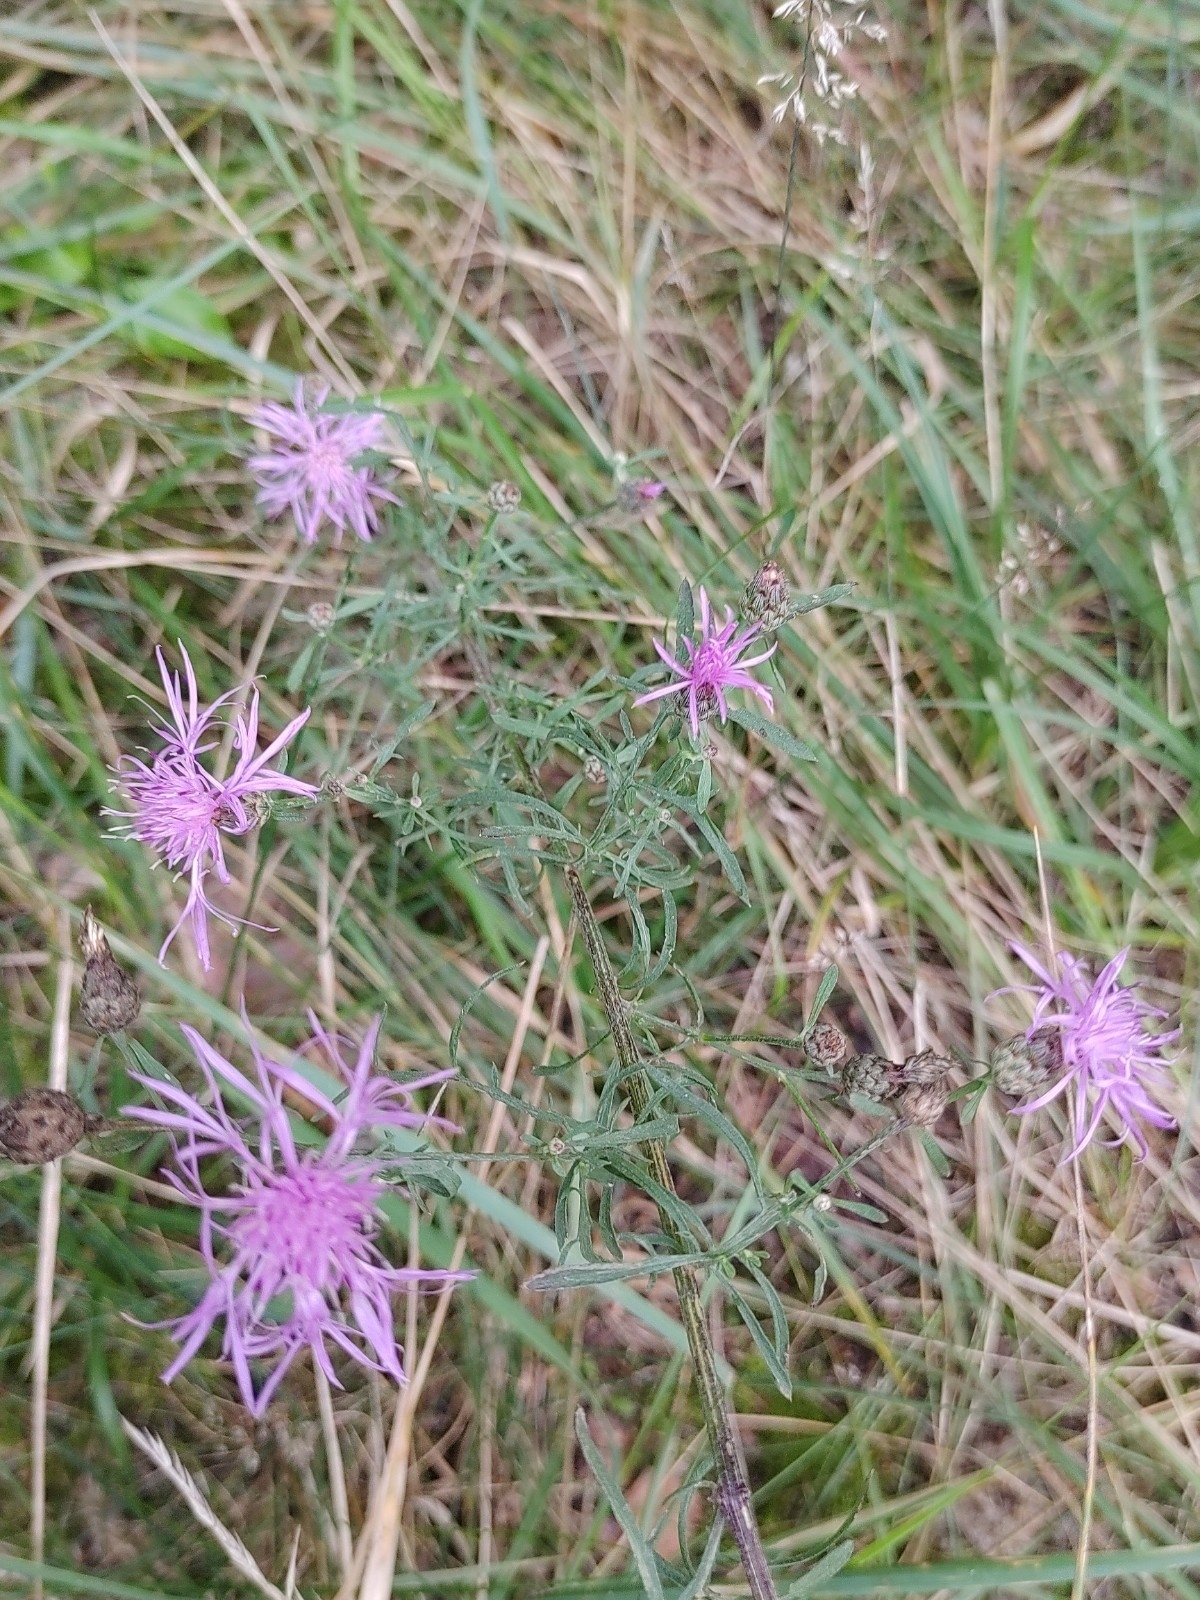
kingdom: Plantae
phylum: Tracheophyta
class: Magnoliopsida
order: Asterales
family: Asteraceae
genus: Centaurea
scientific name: Centaurea stoebe
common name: Spotted knapweed
